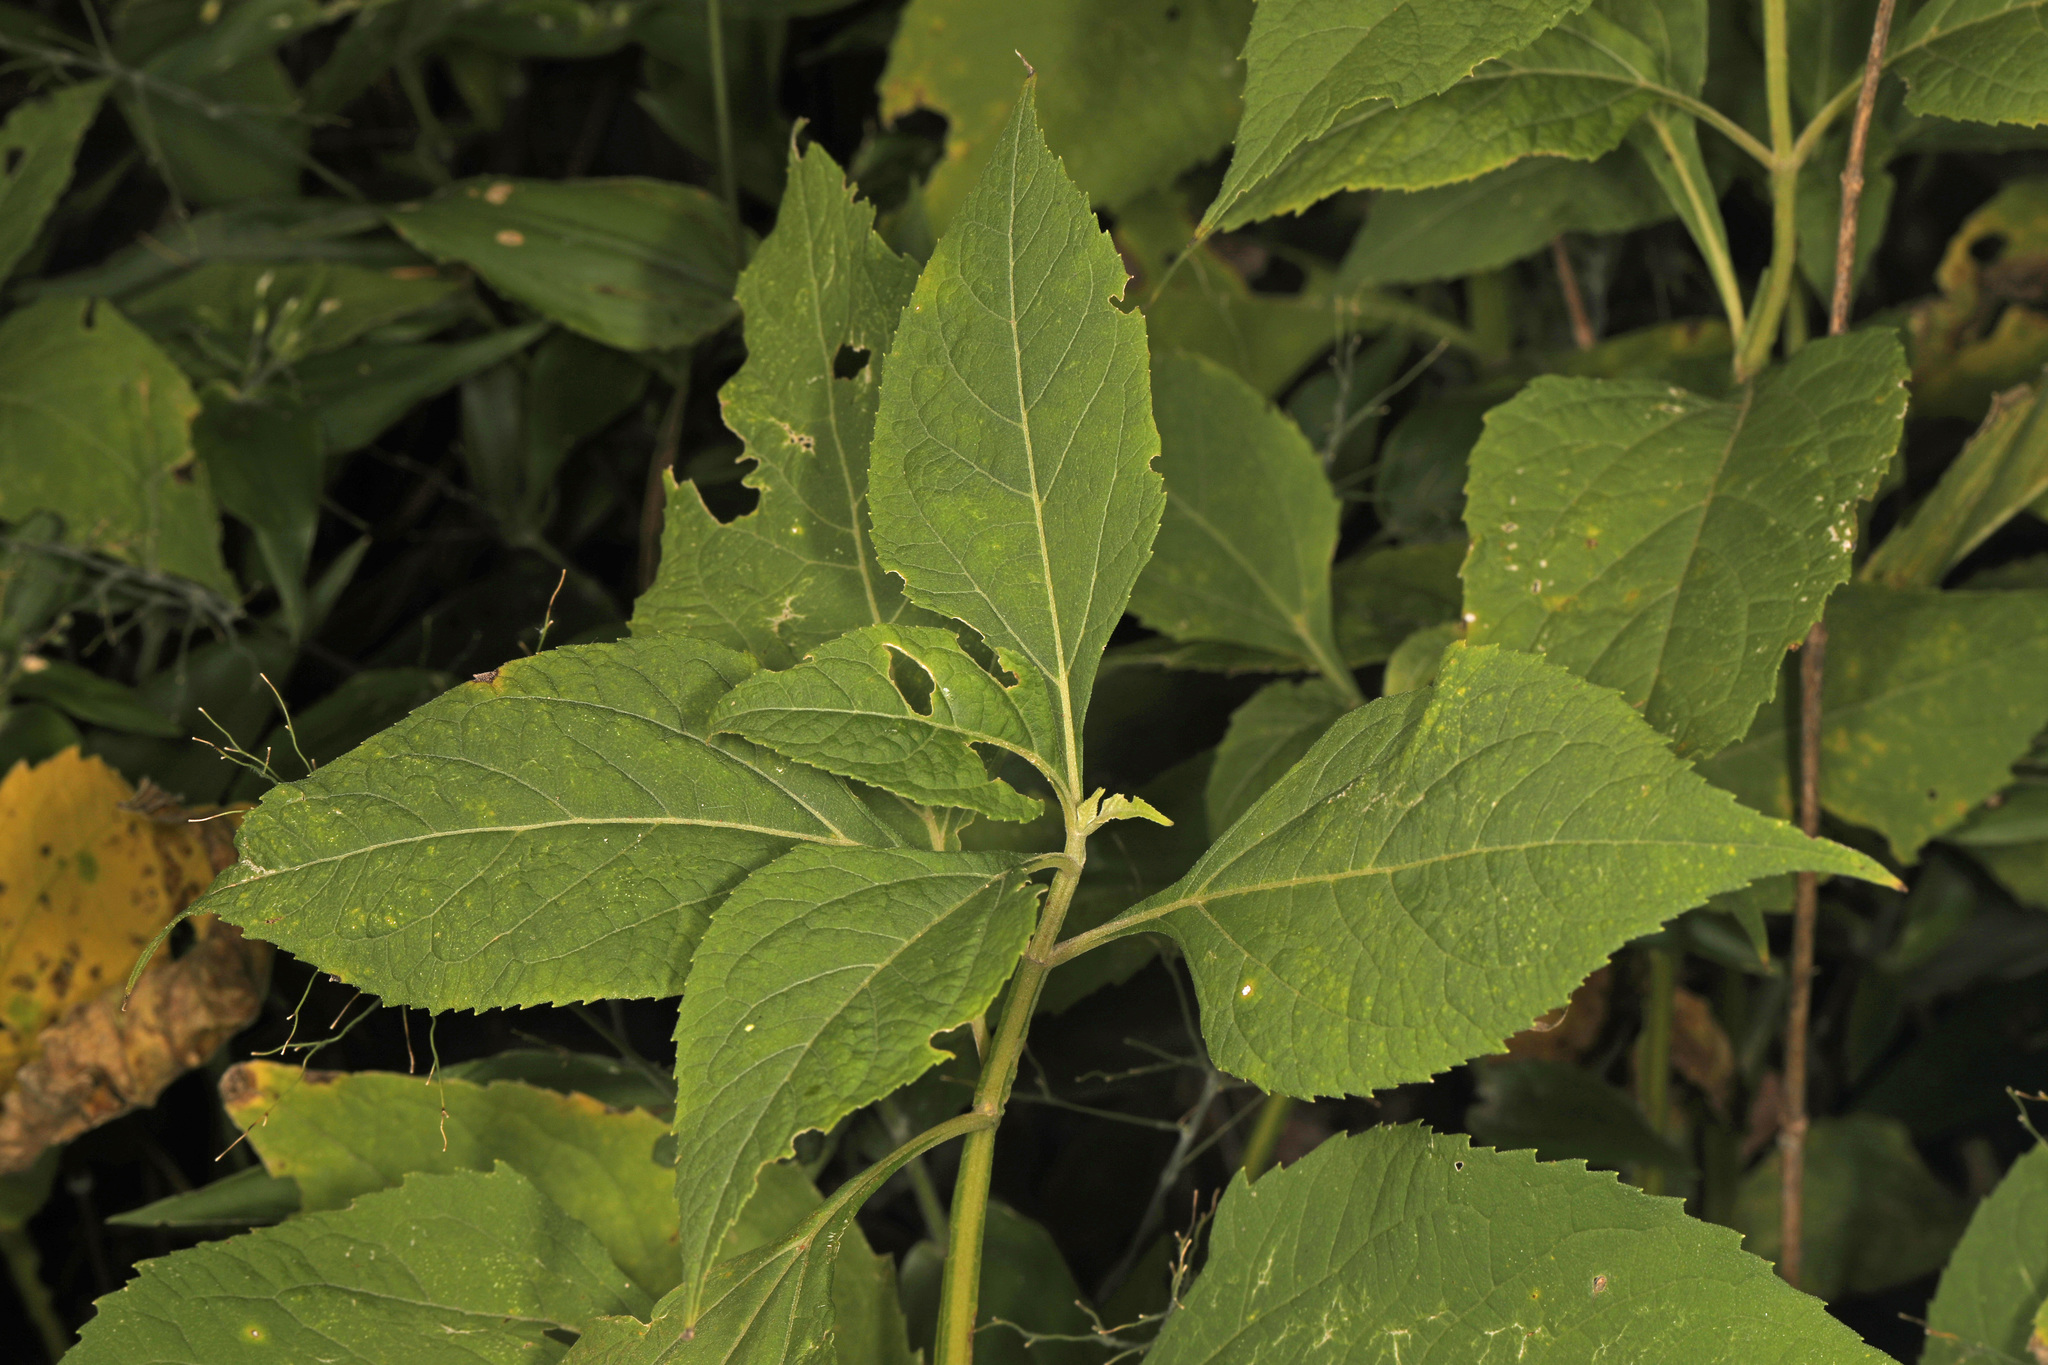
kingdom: Plantae
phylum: Tracheophyta
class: Magnoliopsida
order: Asterales
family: Asteraceae
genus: Verbesina
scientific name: Verbesina occidentalis
